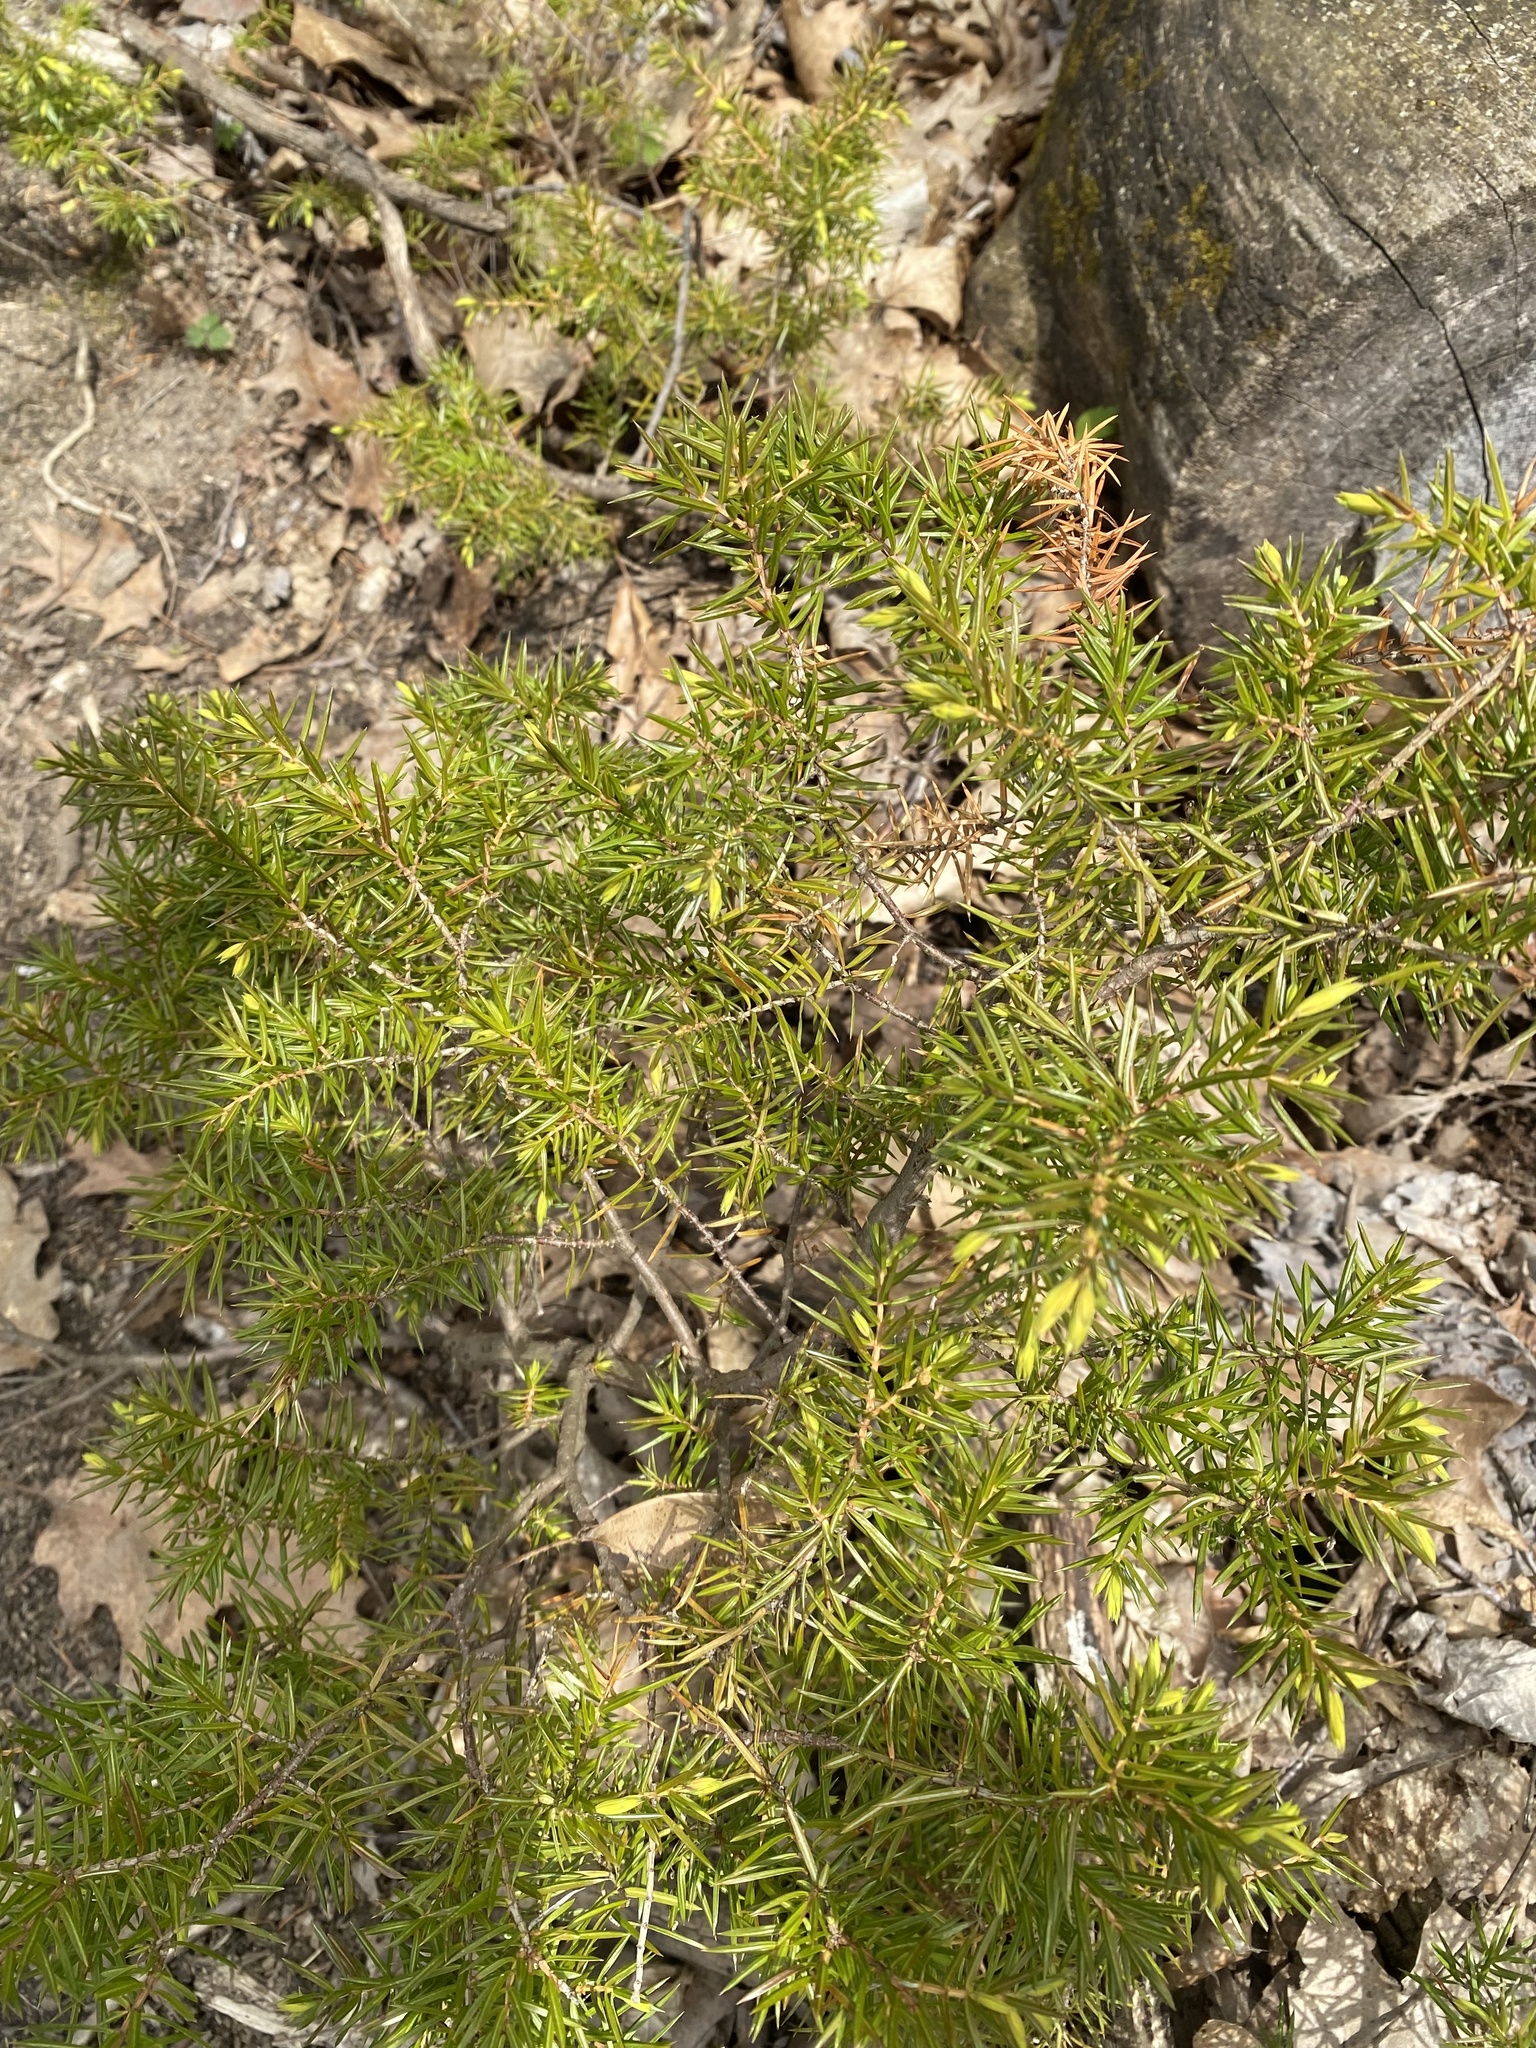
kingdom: Plantae
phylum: Tracheophyta
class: Pinopsida
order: Pinales
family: Cupressaceae
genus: Juniperus
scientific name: Juniperus communis
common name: Common juniper
